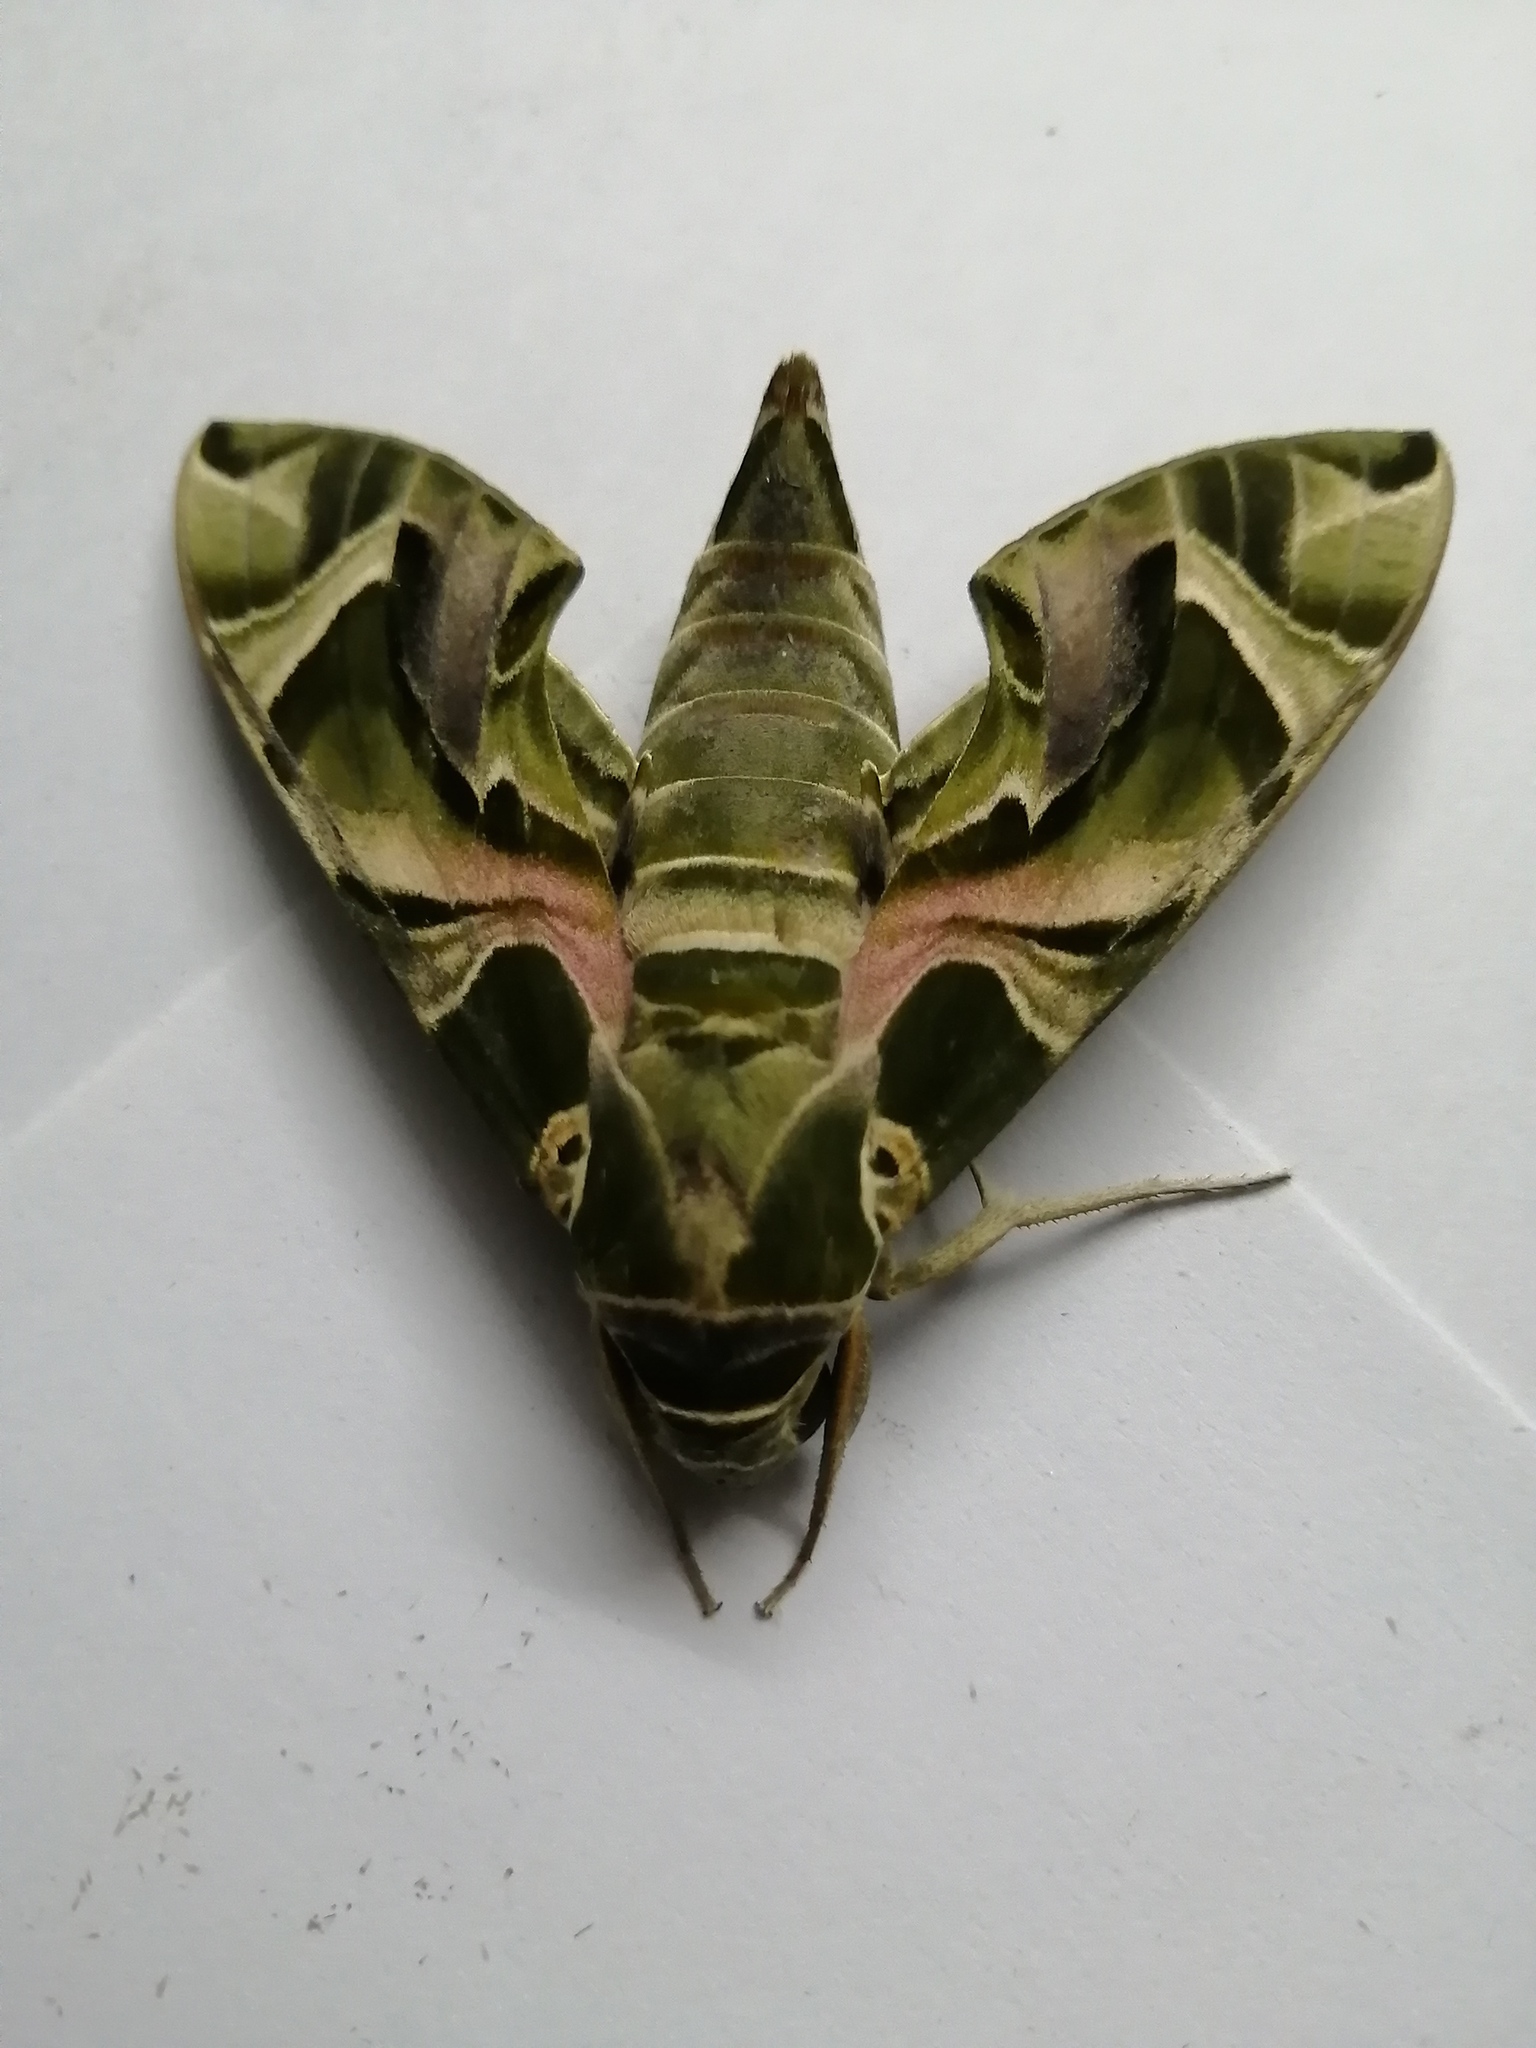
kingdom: Animalia
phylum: Arthropoda
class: Insecta
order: Lepidoptera
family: Sphingidae
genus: Daphnis
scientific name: Daphnis nerii
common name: Oleander hawk-moth
